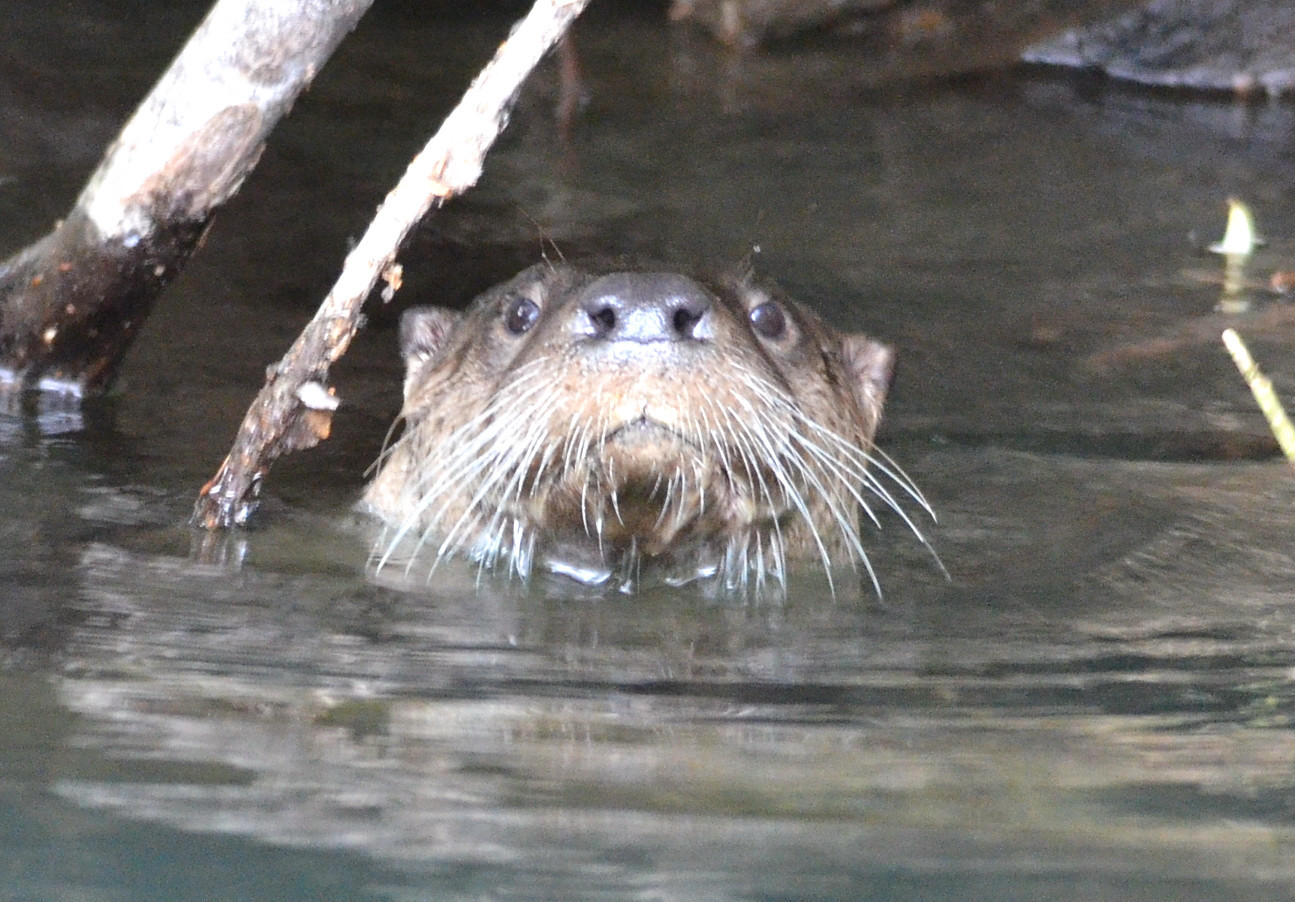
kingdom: Animalia
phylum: Chordata
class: Mammalia
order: Carnivora
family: Mustelidae
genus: Lontra
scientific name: Lontra canadensis
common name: North american river otter
